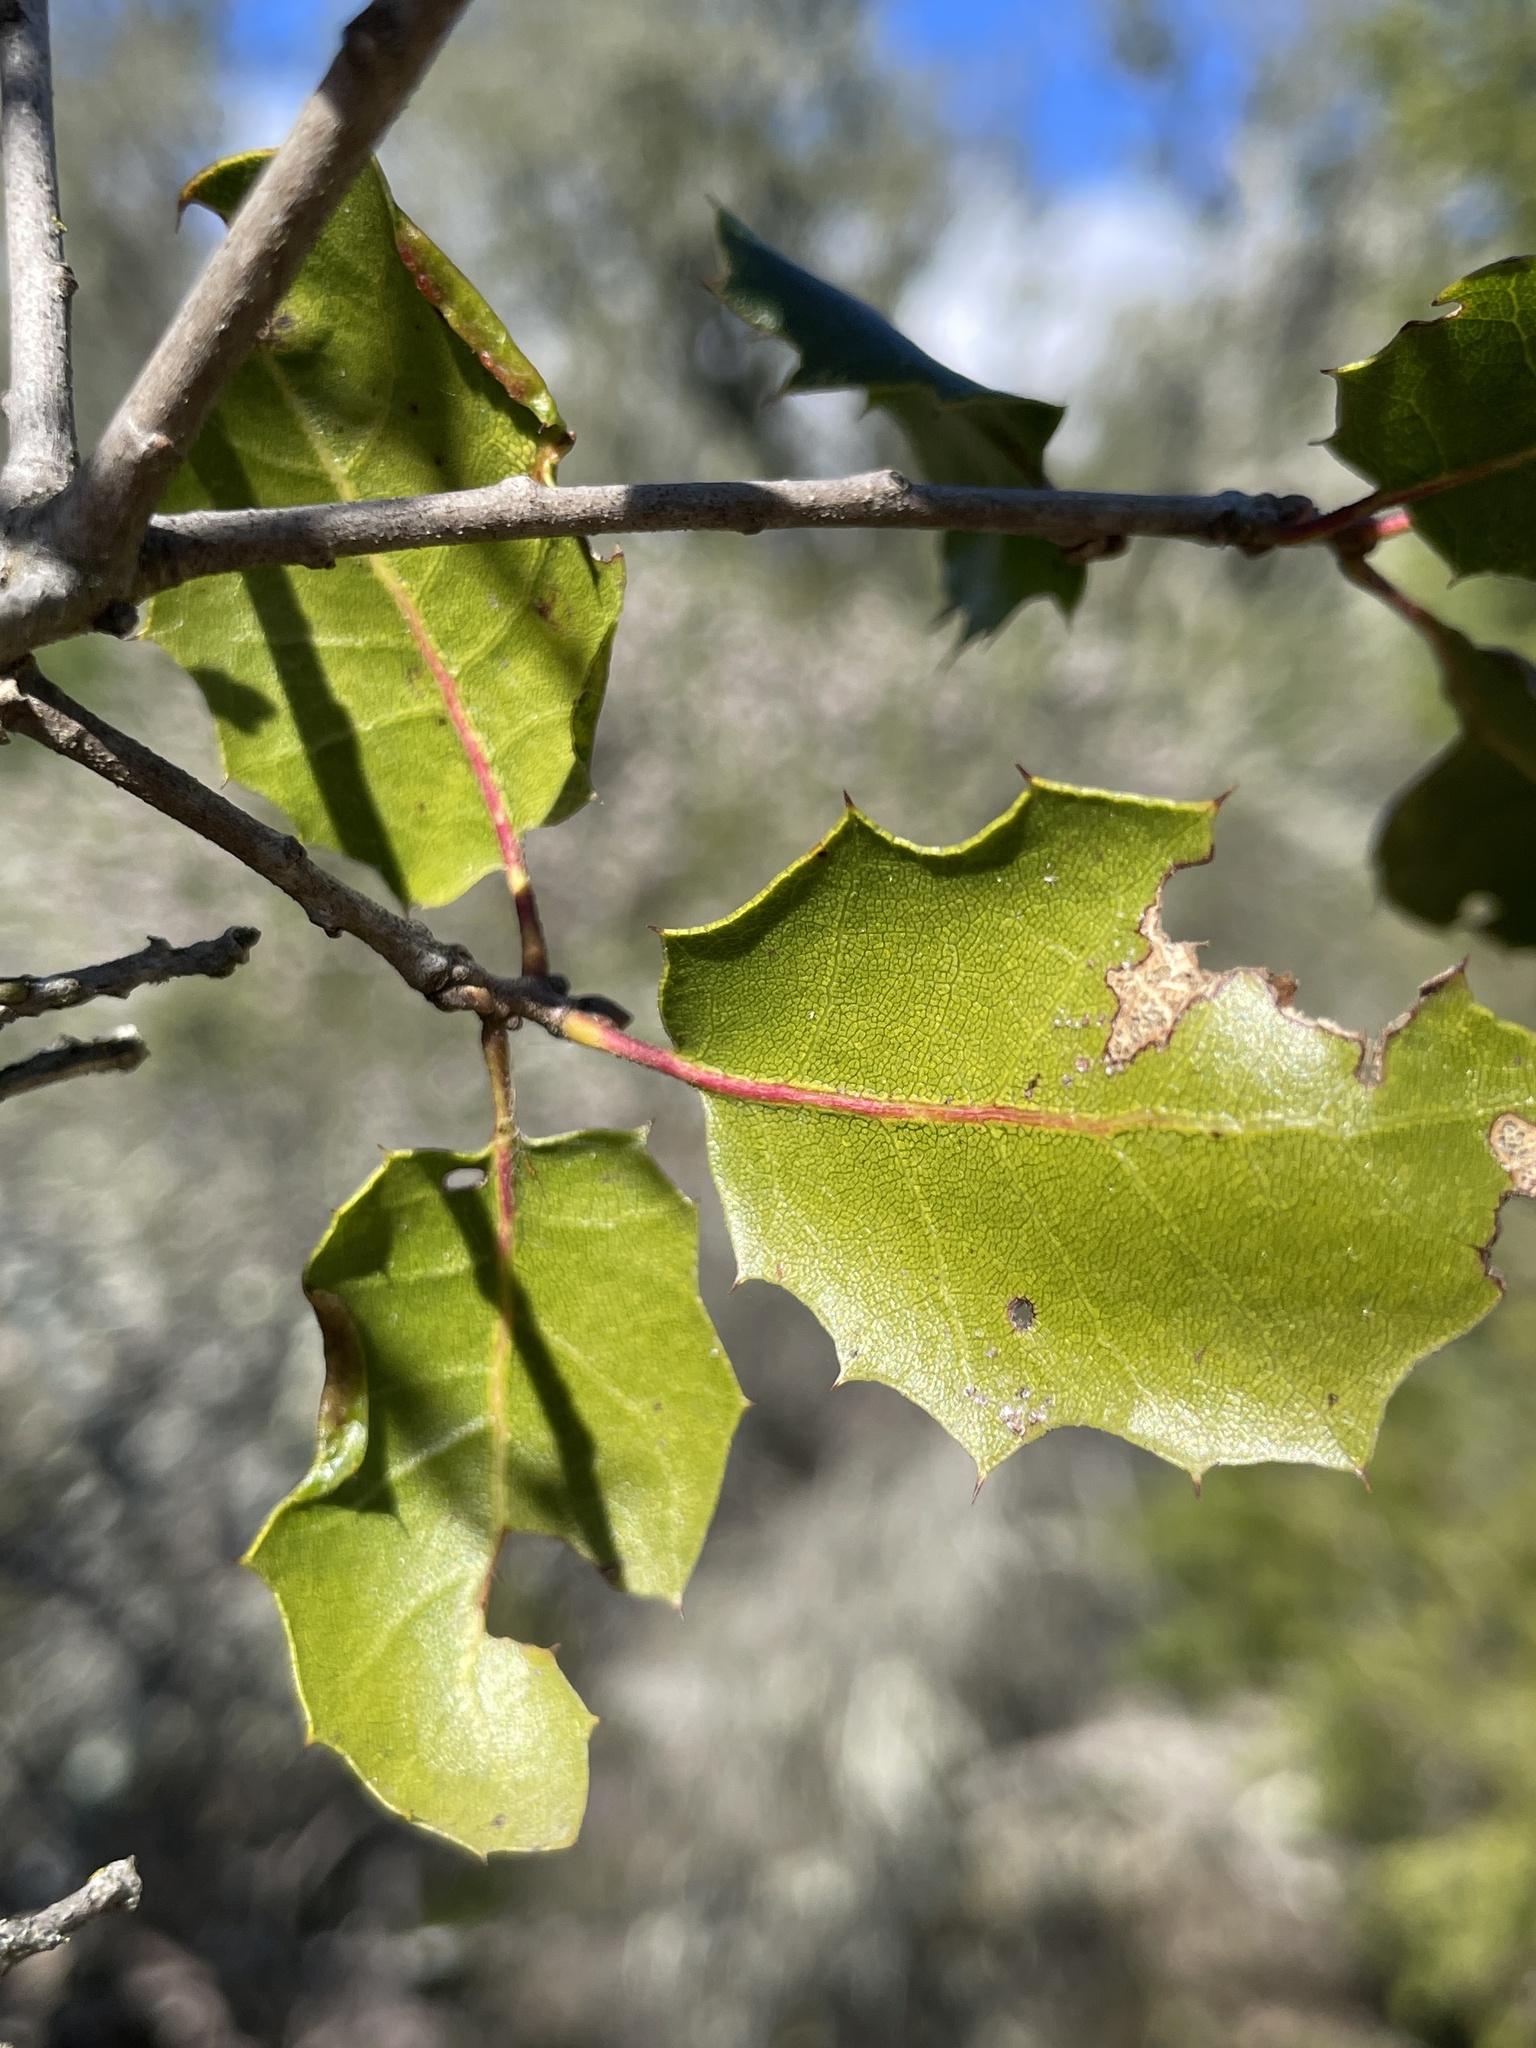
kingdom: Plantae
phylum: Tracheophyta
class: Magnoliopsida
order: Fagales
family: Fagaceae
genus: Quercus
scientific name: Quercus wislizeni
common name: Interior live oak
